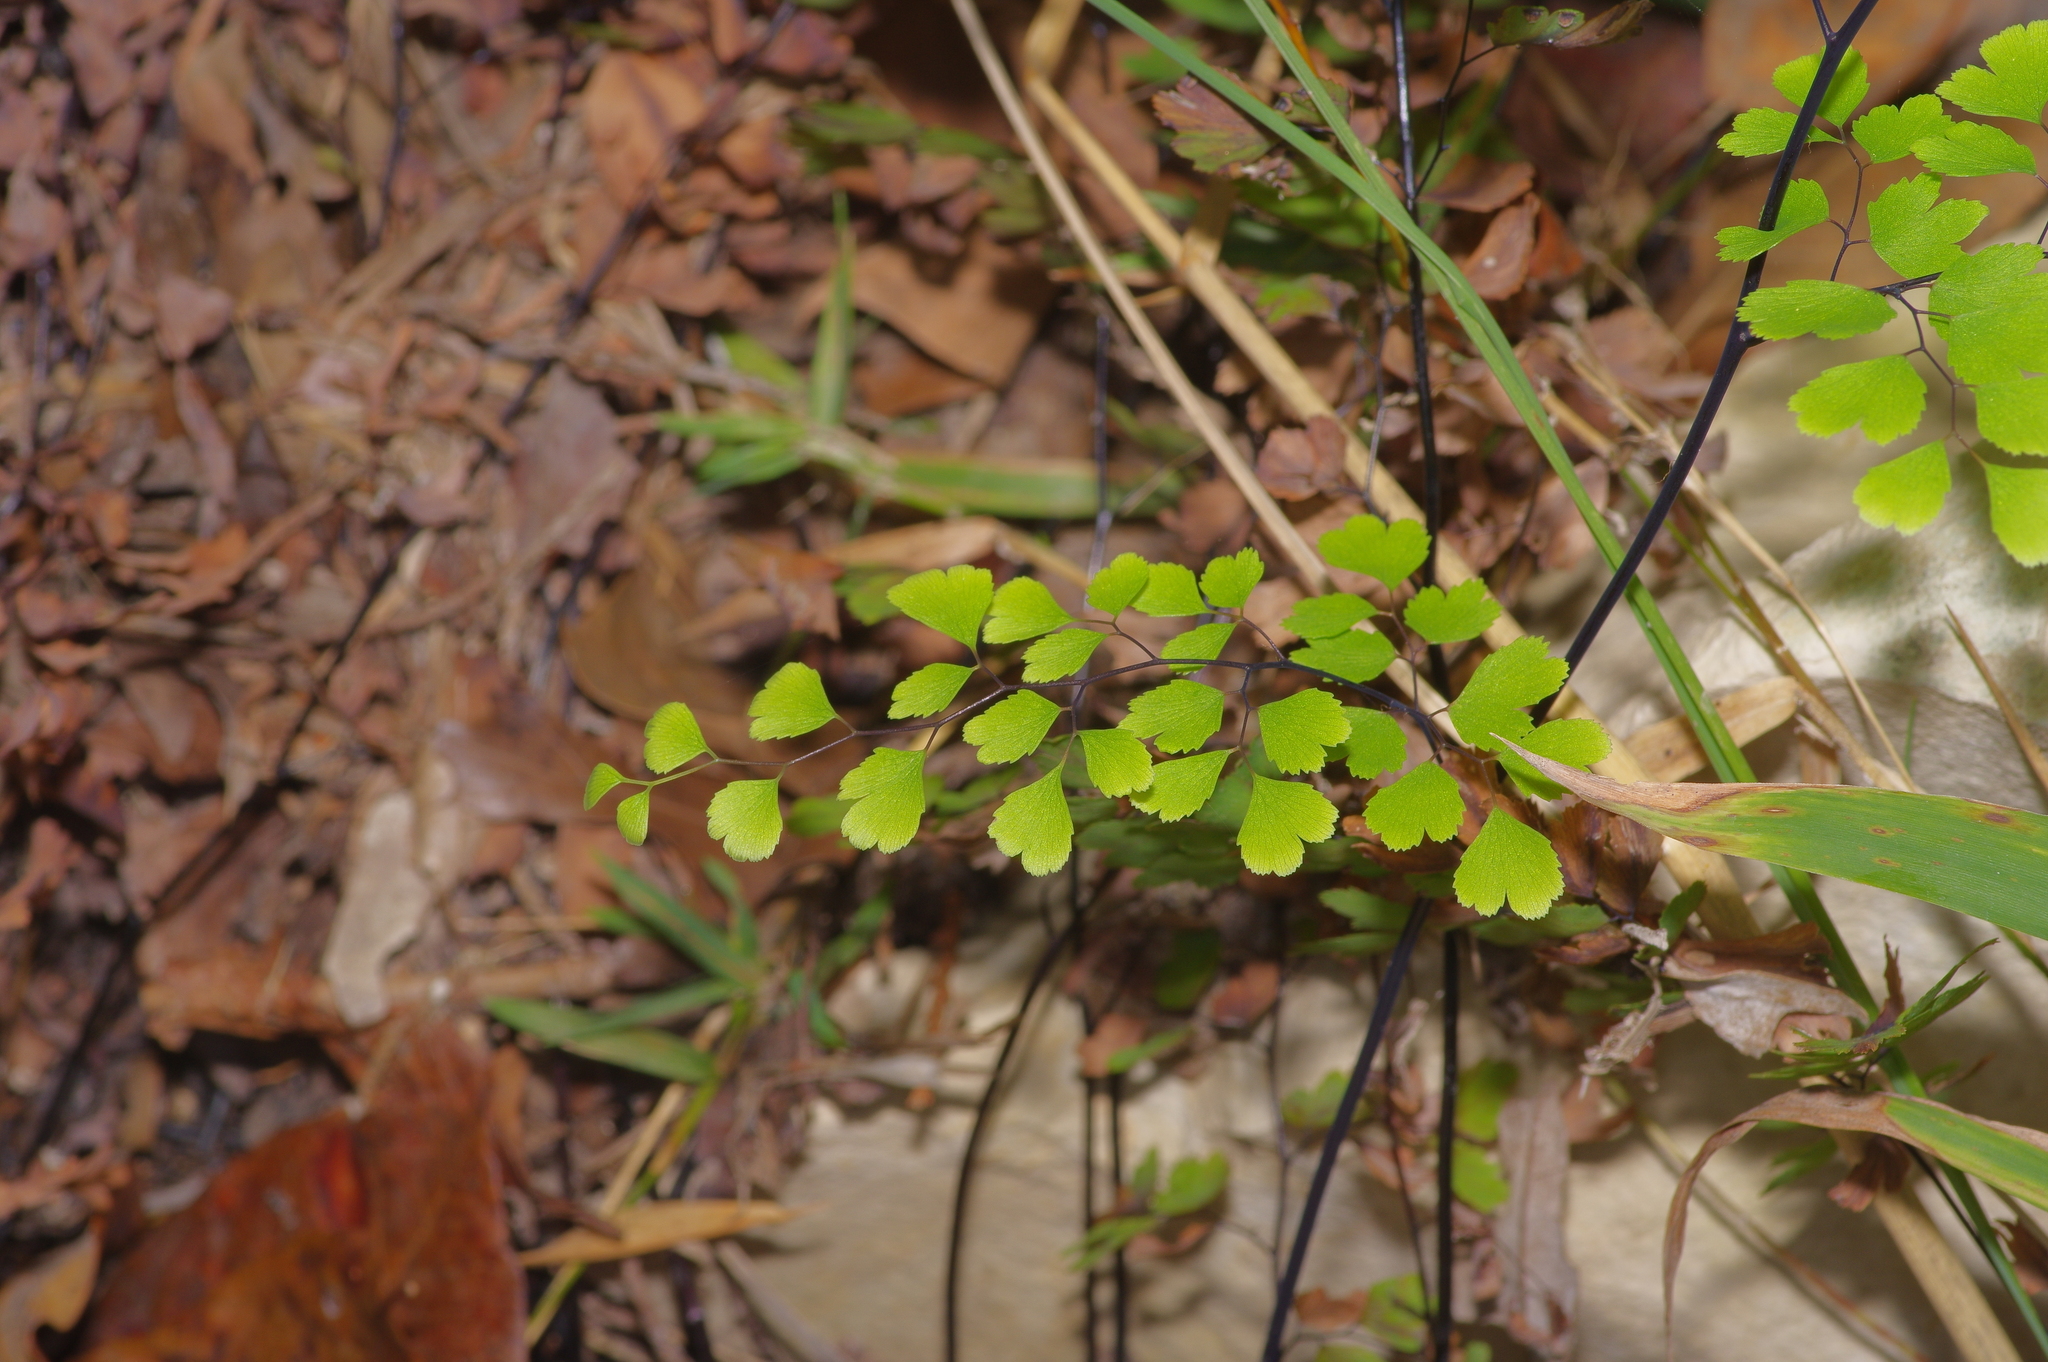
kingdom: Plantae
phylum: Tracheophyta
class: Polypodiopsida
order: Polypodiales
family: Pteridaceae
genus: Adiantum
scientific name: Adiantum capillus-veneris
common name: Maidenhair fern
